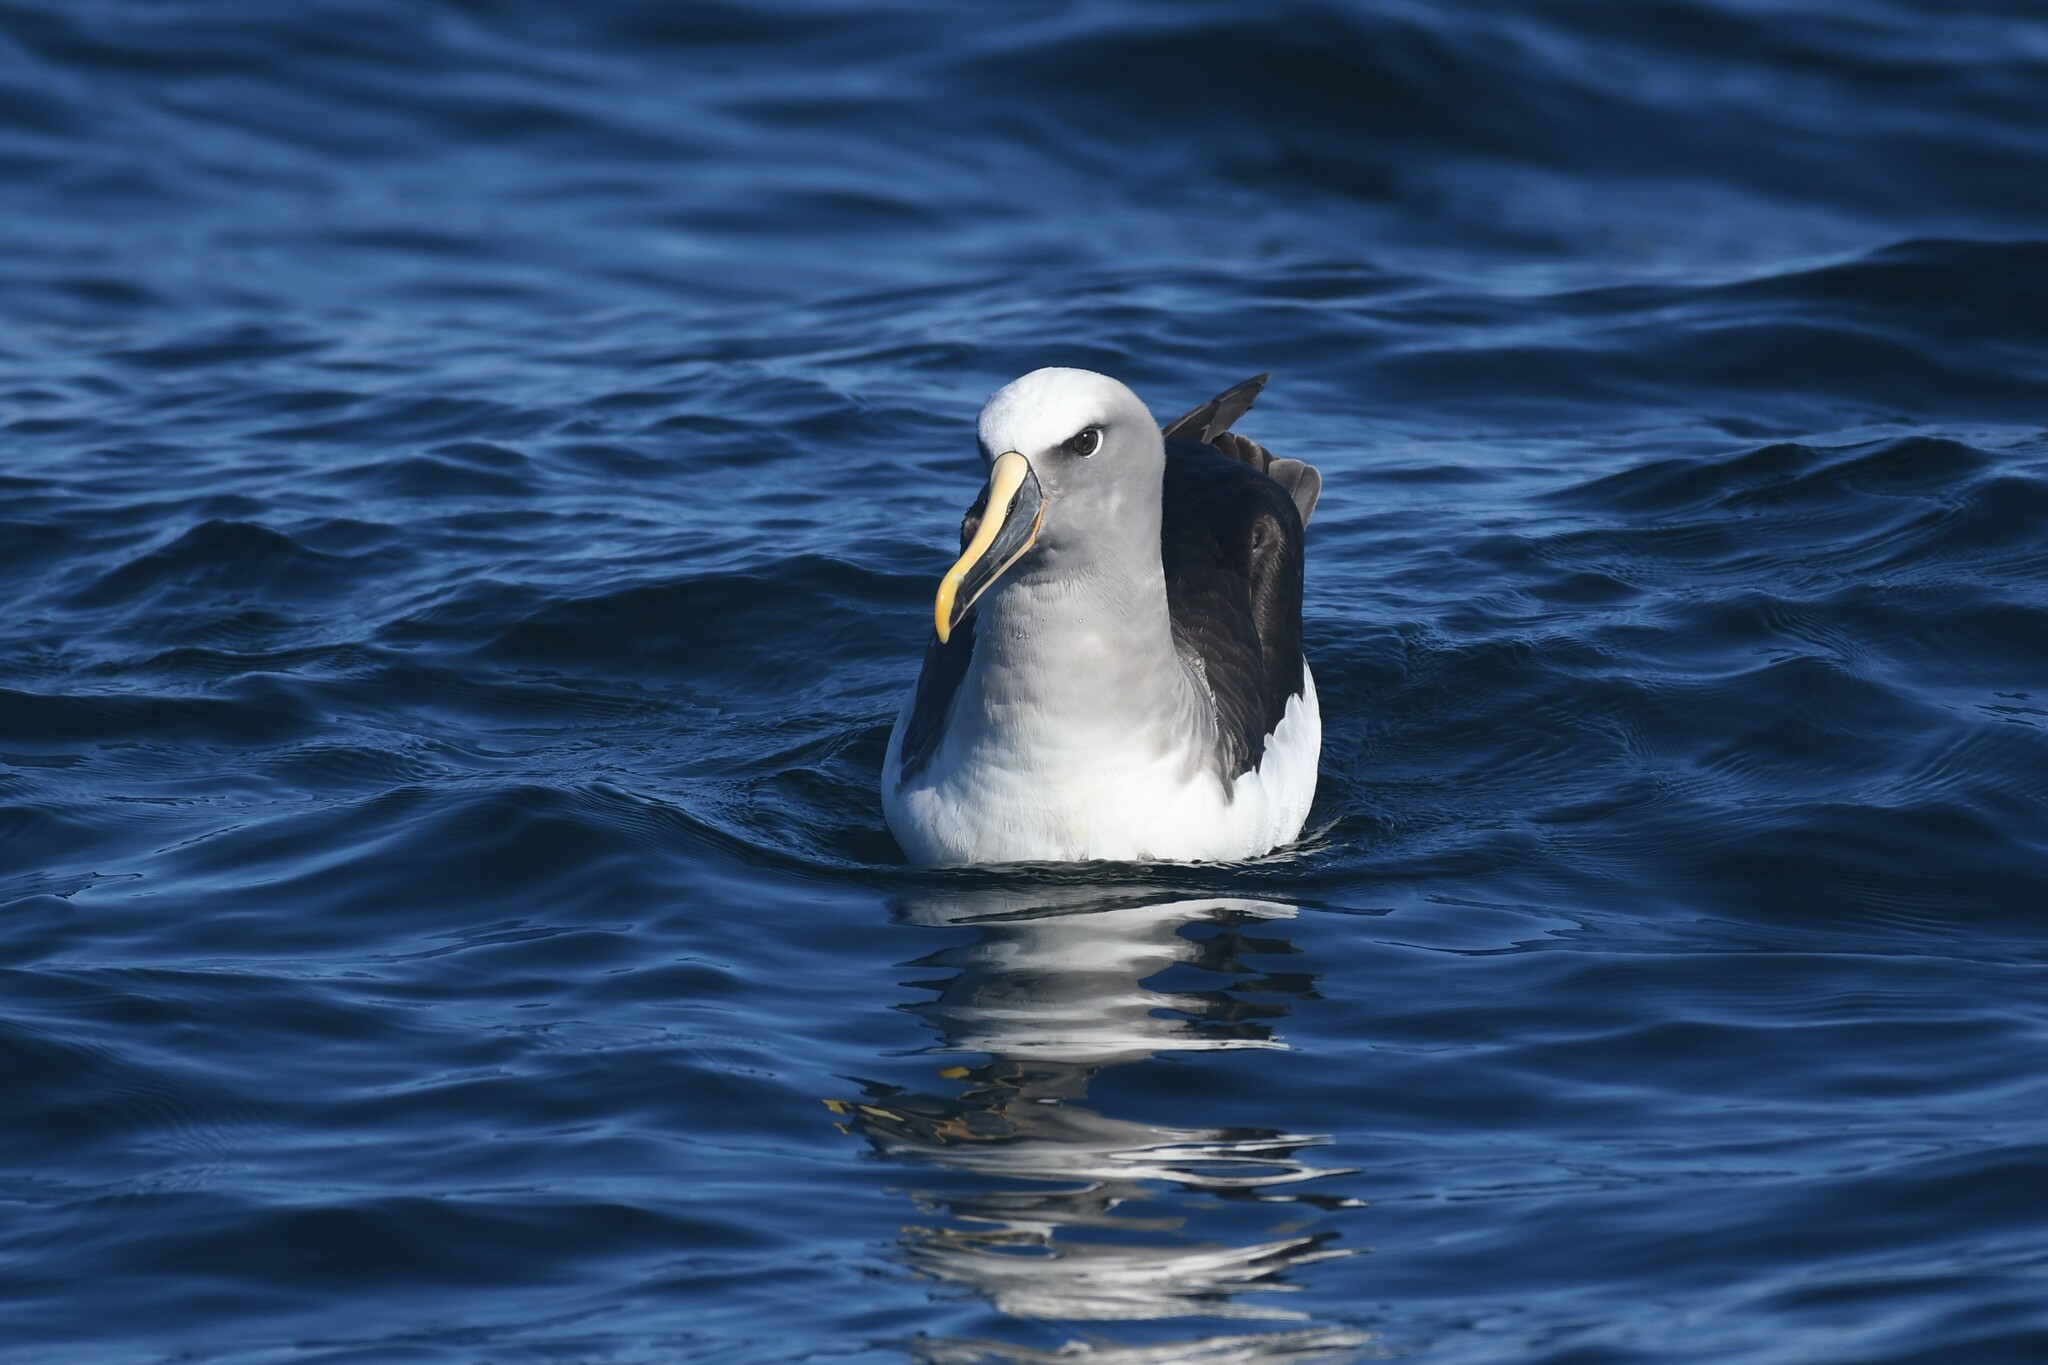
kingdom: Animalia
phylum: Chordata
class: Aves
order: Procellariiformes
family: Diomedeidae
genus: Thalassarche
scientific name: Thalassarche bulleri
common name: Buller's albatross
